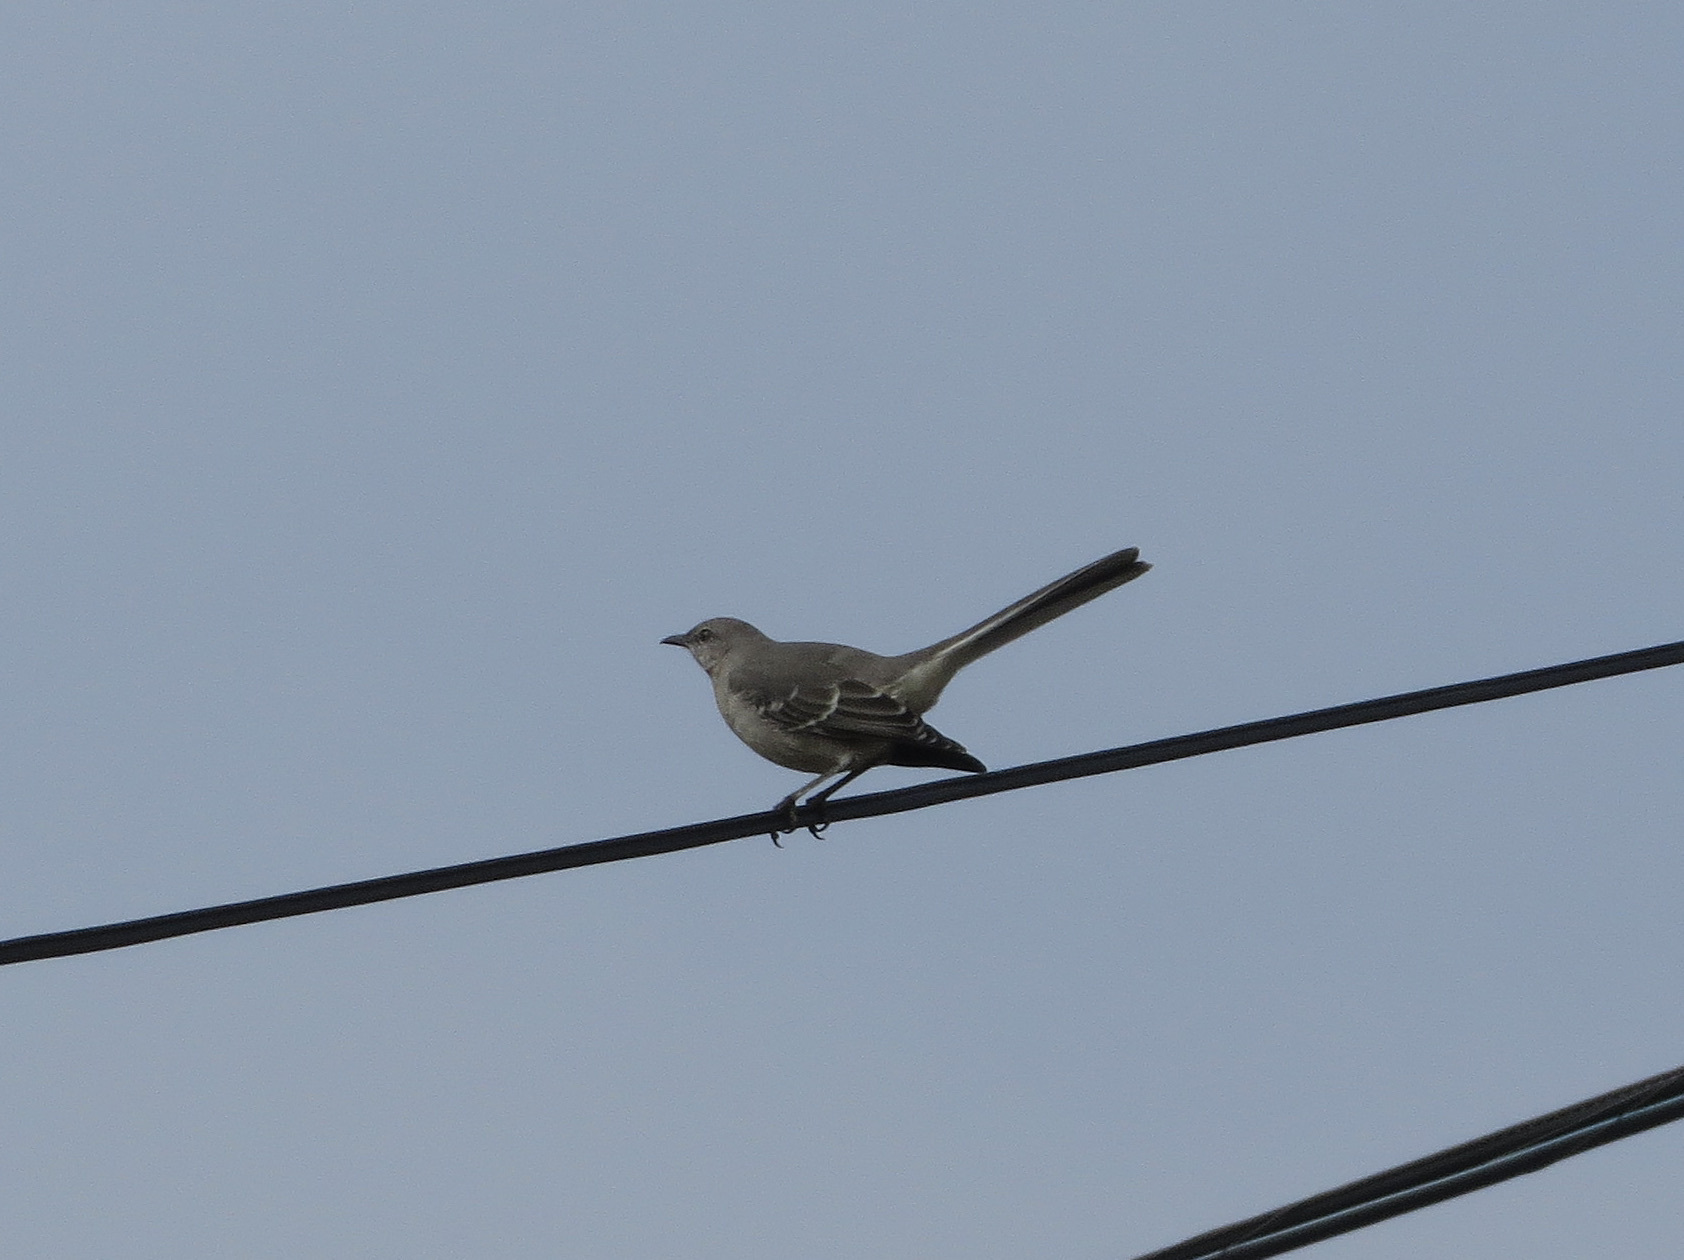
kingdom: Animalia
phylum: Chordata
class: Aves
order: Passeriformes
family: Mimidae
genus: Mimus
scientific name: Mimus polyglottos
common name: Northern mockingbird
